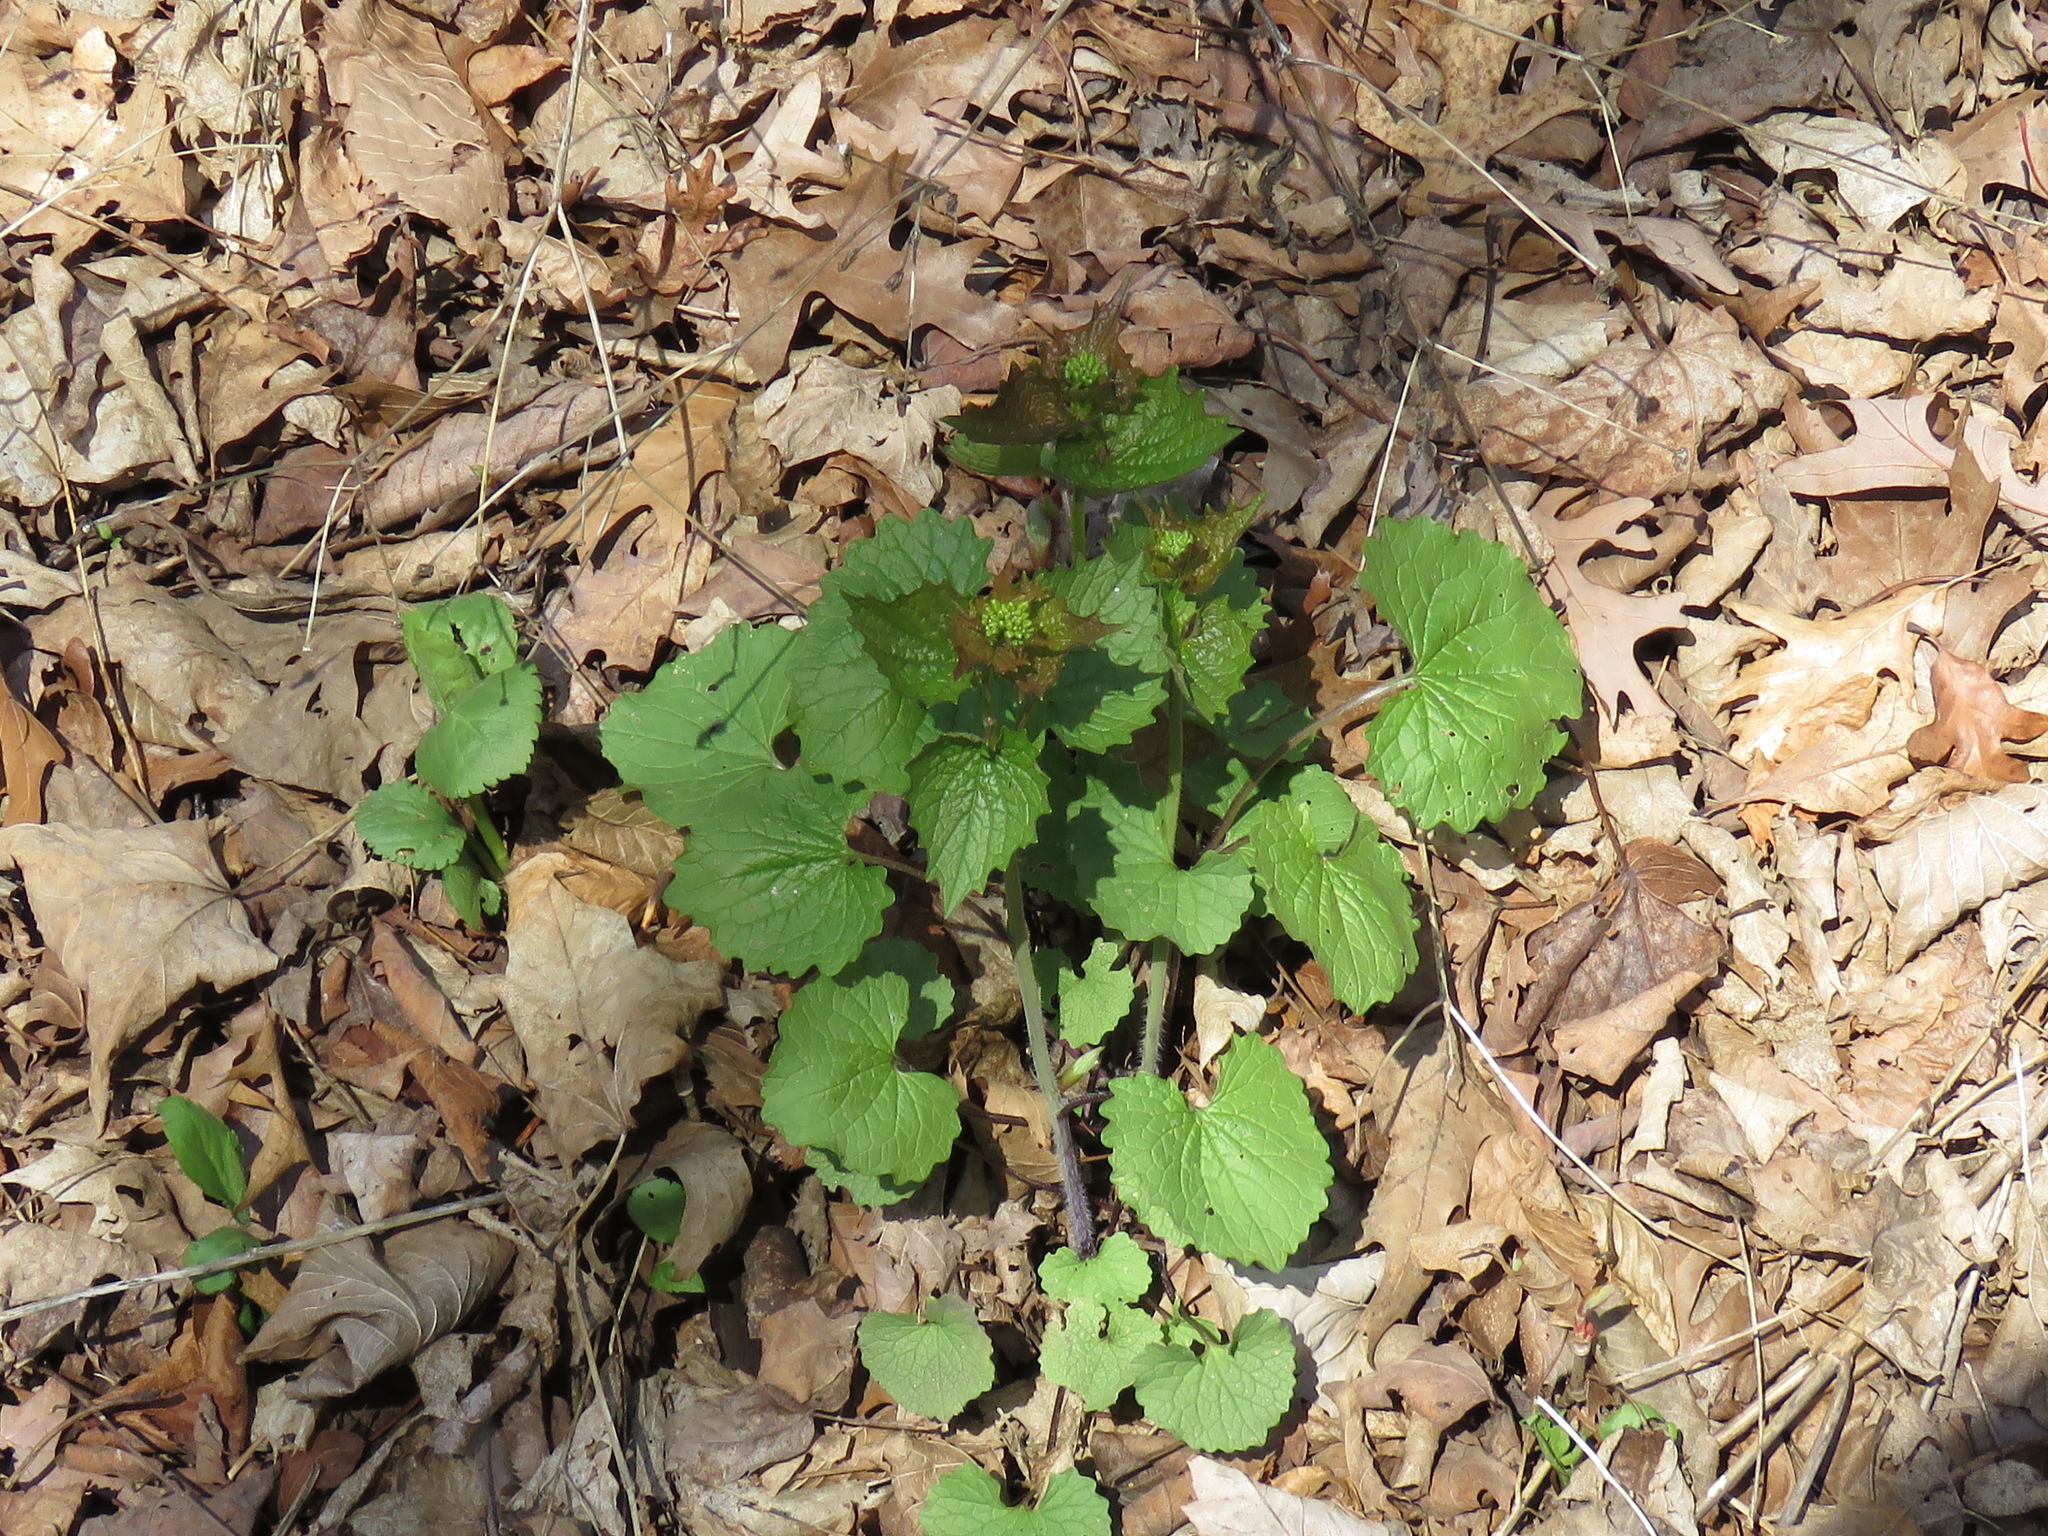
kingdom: Plantae
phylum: Tracheophyta
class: Magnoliopsida
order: Brassicales
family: Brassicaceae
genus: Alliaria
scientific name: Alliaria petiolata
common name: Garlic mustard
